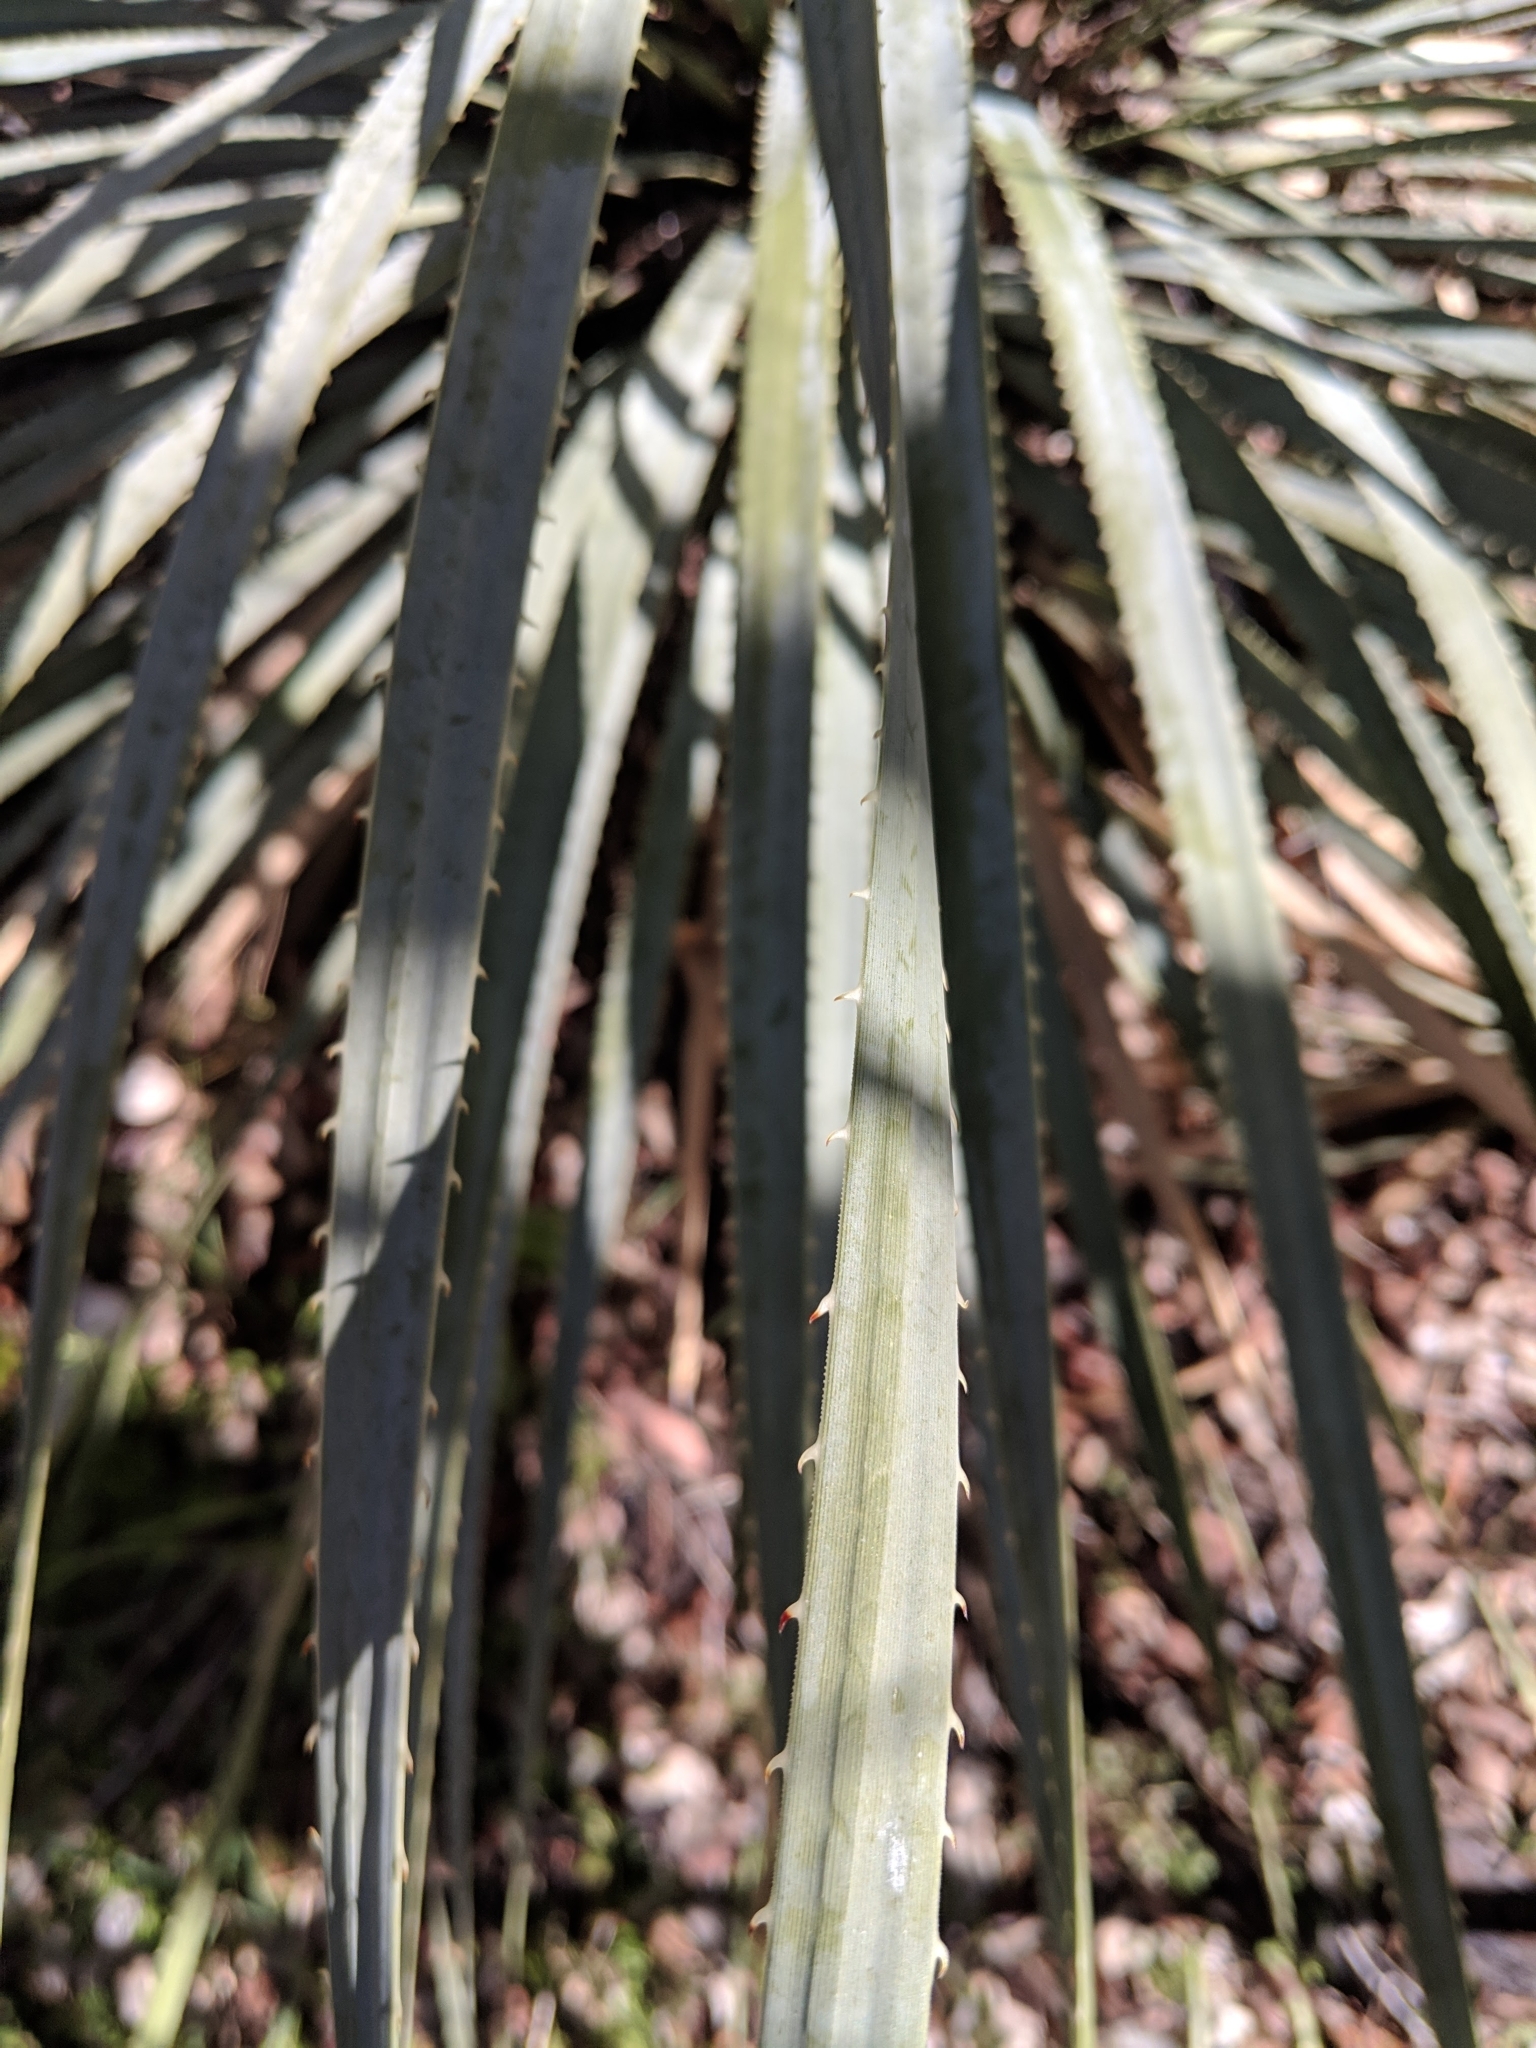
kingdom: Plantae
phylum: Tracheophyta
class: Liliopsida
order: Asparagales
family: Asparagaceae
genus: Dasylirion
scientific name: Dasylirion wheeleri
